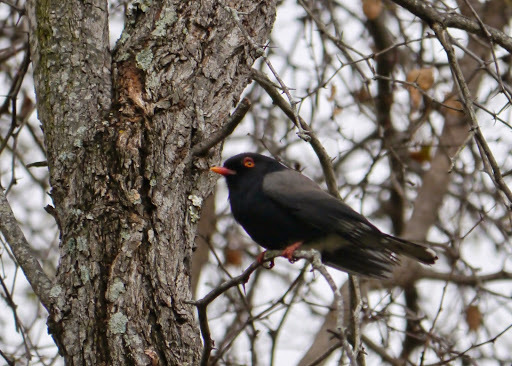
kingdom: Animalia
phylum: Chordata
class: Aves
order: Passeriformes
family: Prionopidae
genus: Prionops
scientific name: Prionops retzii
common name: Retz's helmetshrike
